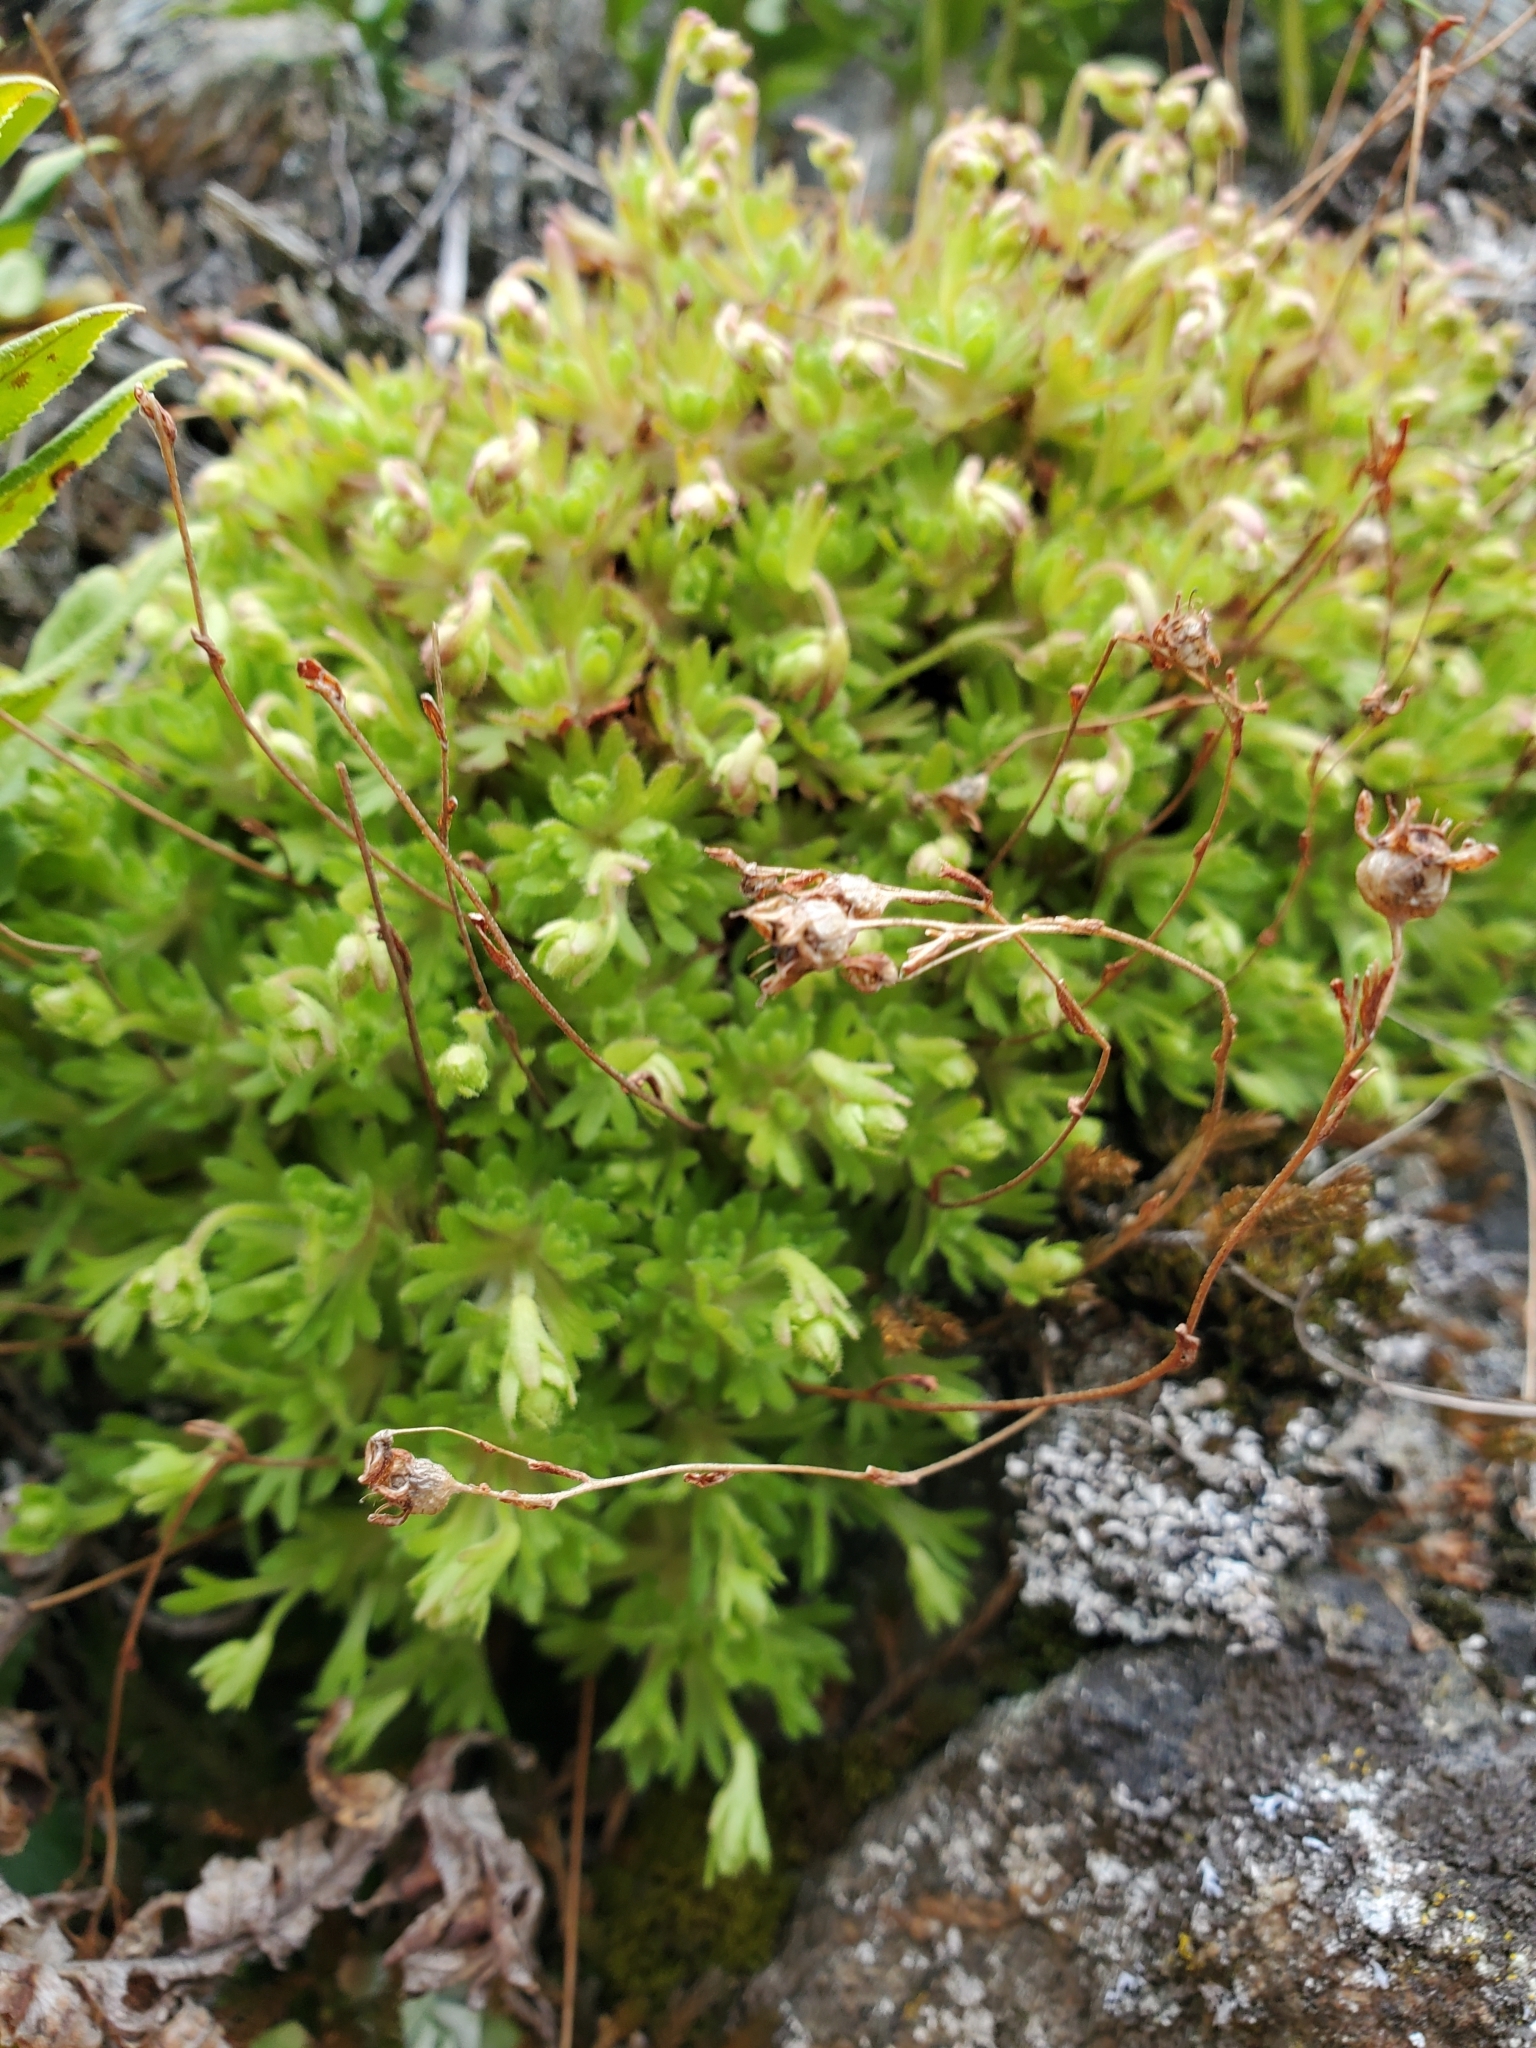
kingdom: Plantae
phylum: Tracheophyta
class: Magnoliopsida
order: Saxifragales
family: Saxifragaceae
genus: Saxifraga
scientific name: Saxifraga cespitosa
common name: Tufted saxifrage
